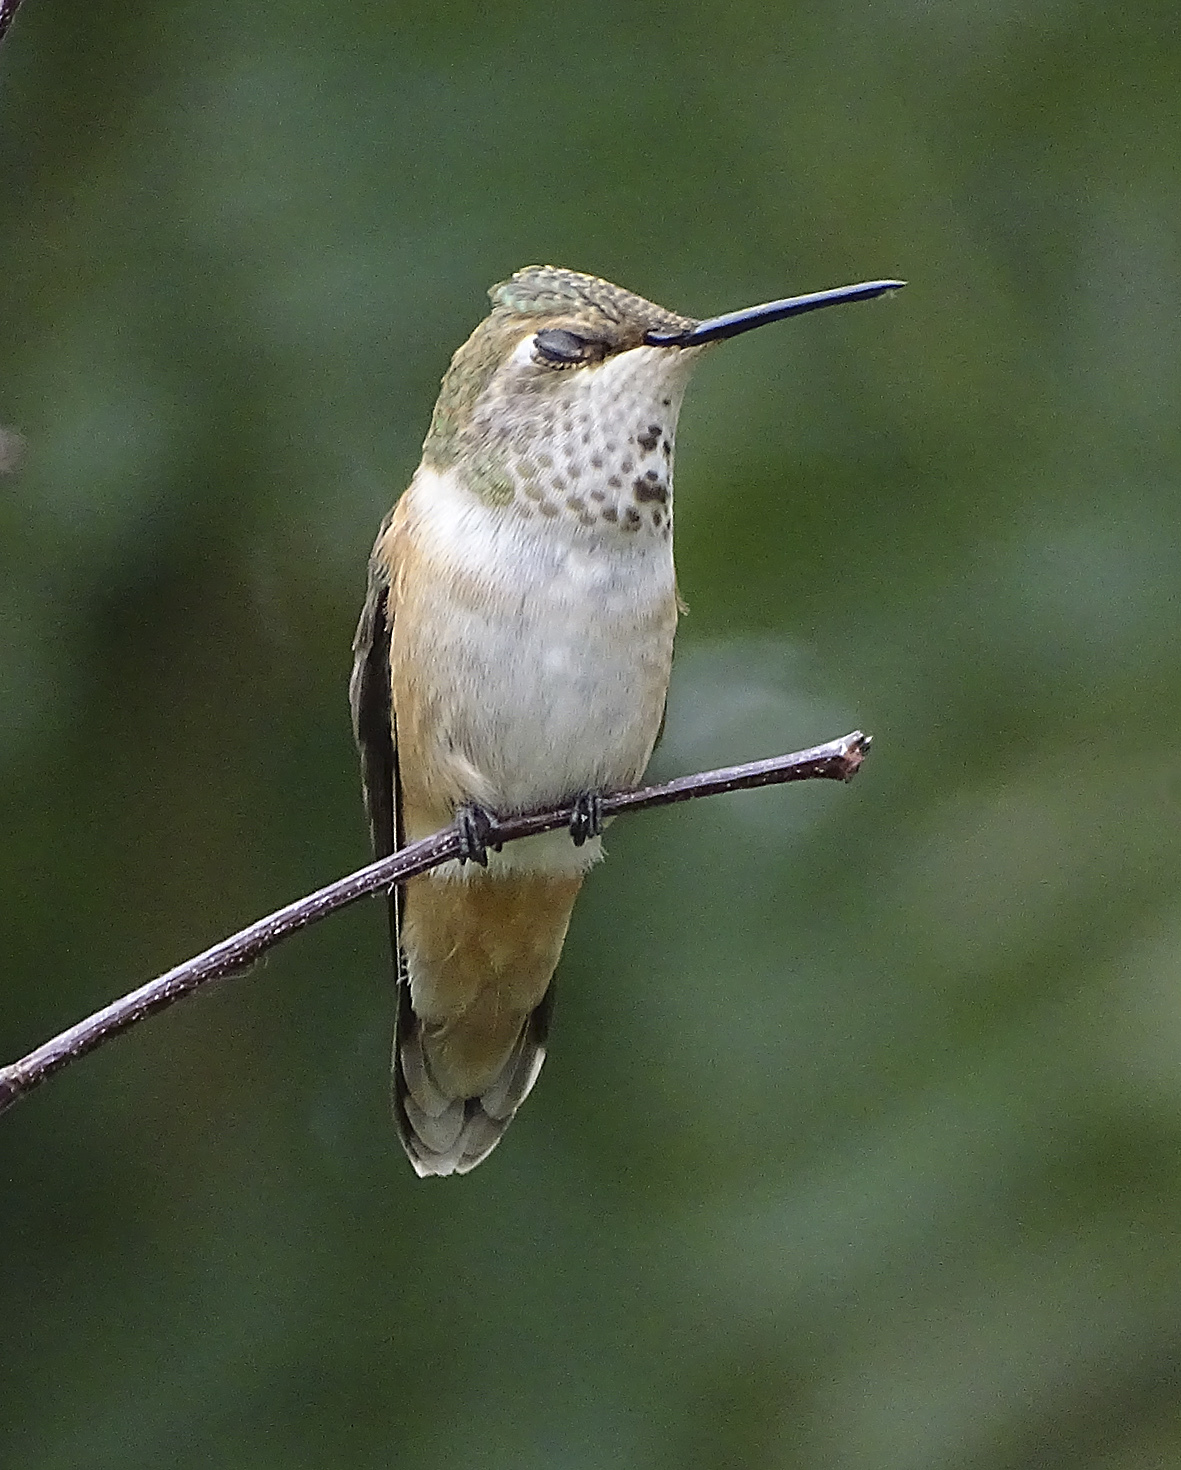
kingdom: Animalia
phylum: Chordata
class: Aves
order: Apodiformes
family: Trochilidae
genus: Selasphorus
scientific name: Selasphorus rufus
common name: Rufous hummingbird
